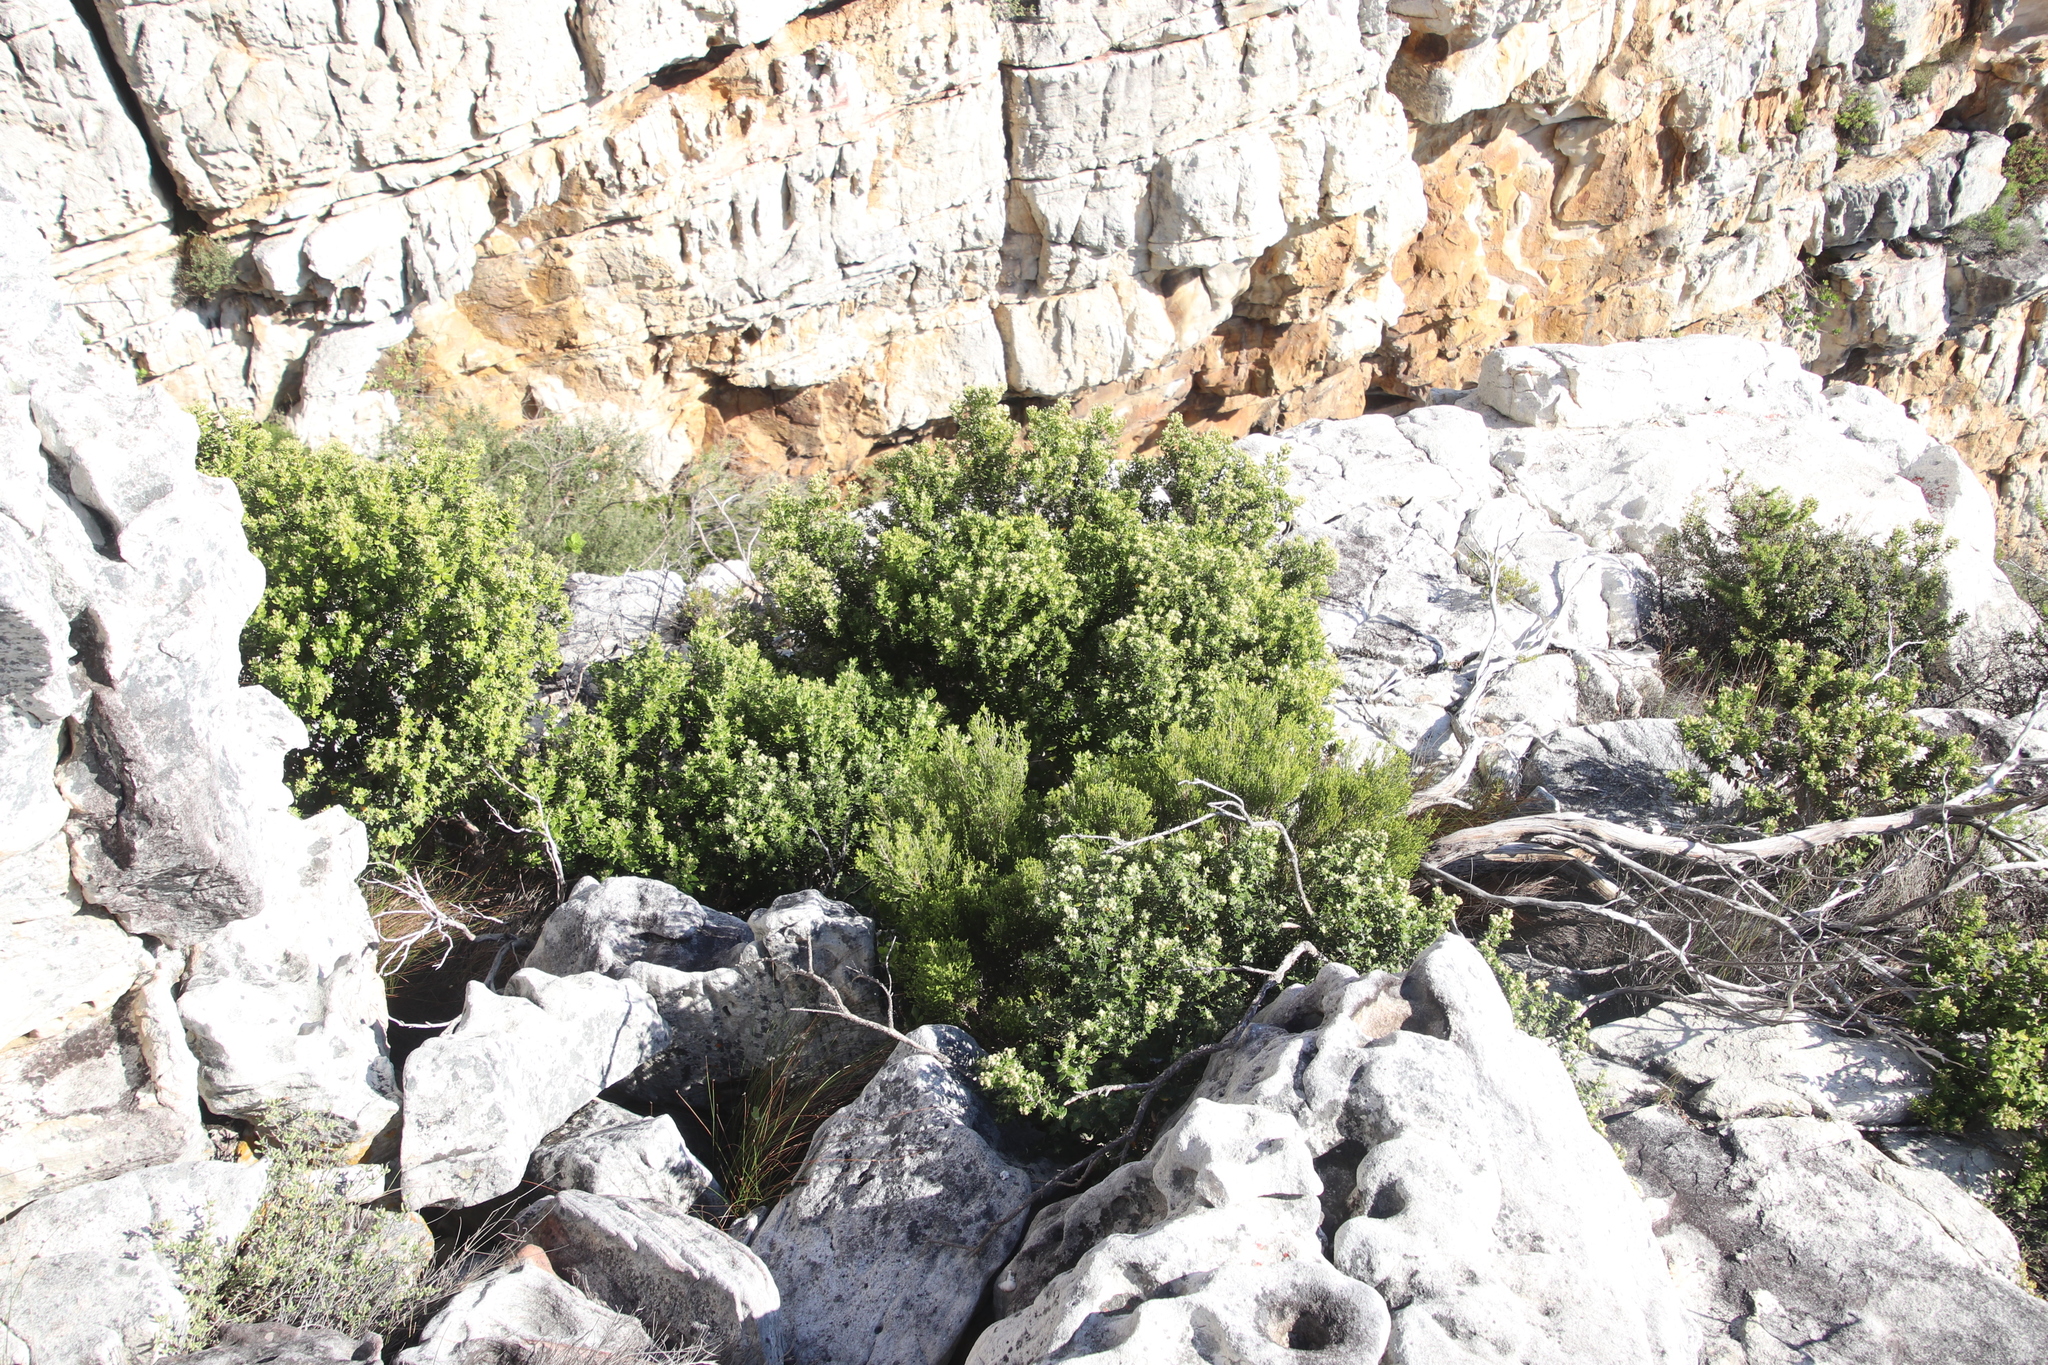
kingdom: Plantae
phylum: Tracheophyta
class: Magnoliopsida
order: Rosales
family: Rhamnaceae
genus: Phylica
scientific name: Phylica buxifolia
